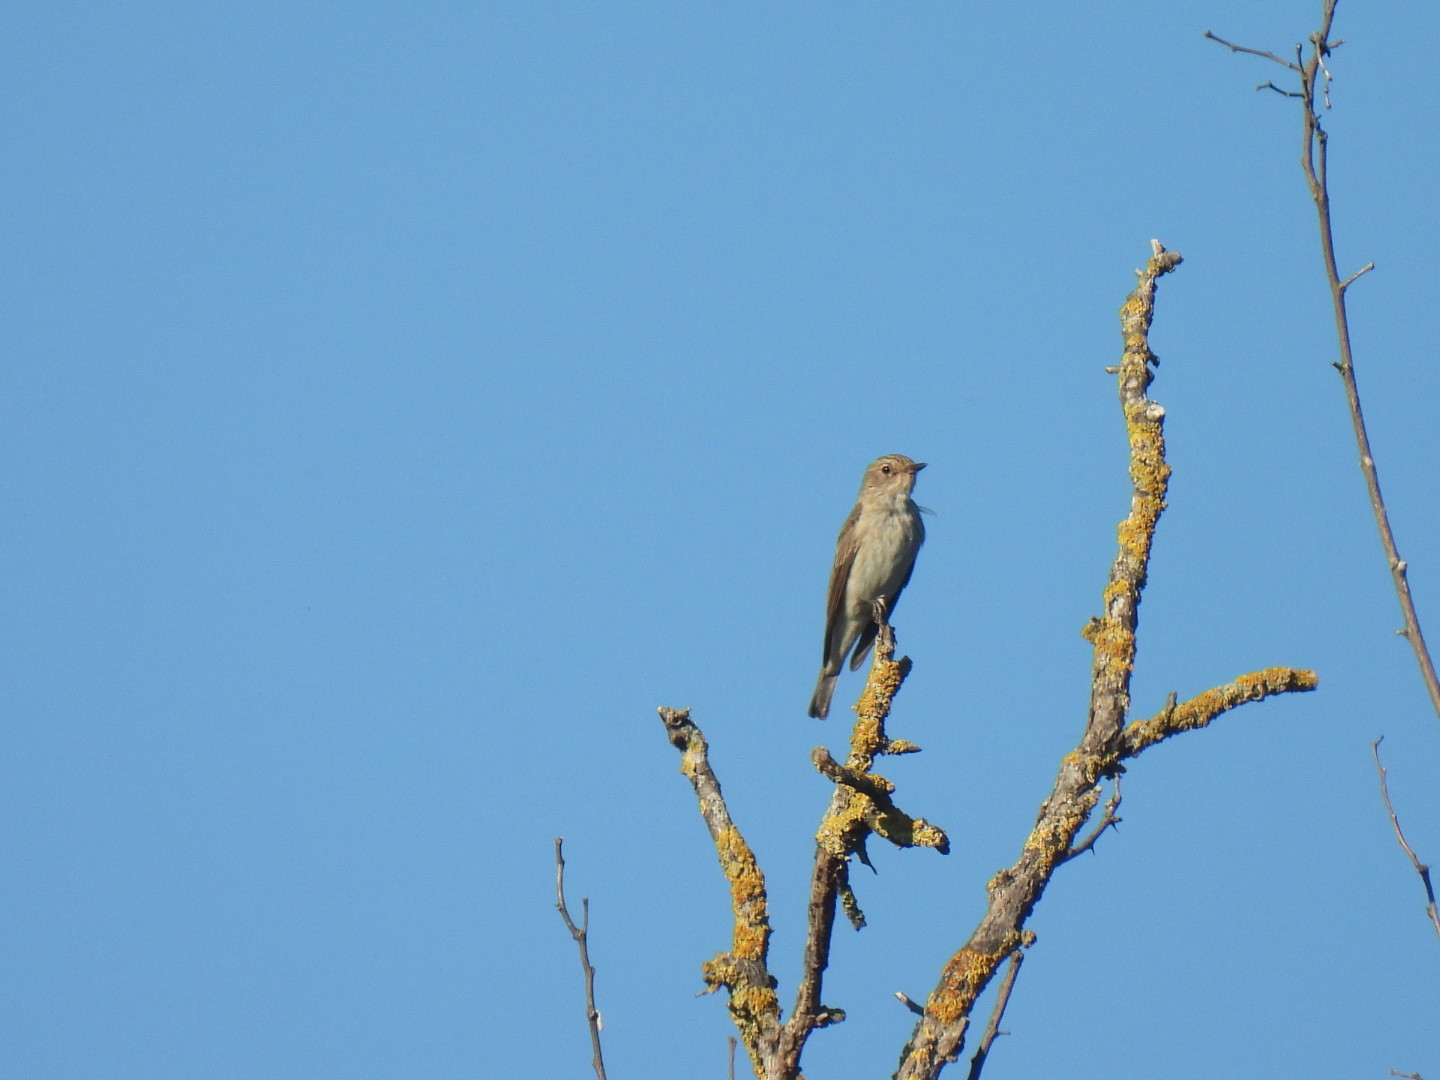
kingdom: Animalia
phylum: Chordata
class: Aves
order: Passeriformes
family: Muscicapidae
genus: Muscicapa
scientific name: Muscicapa striata
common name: Spotted flycatcher
